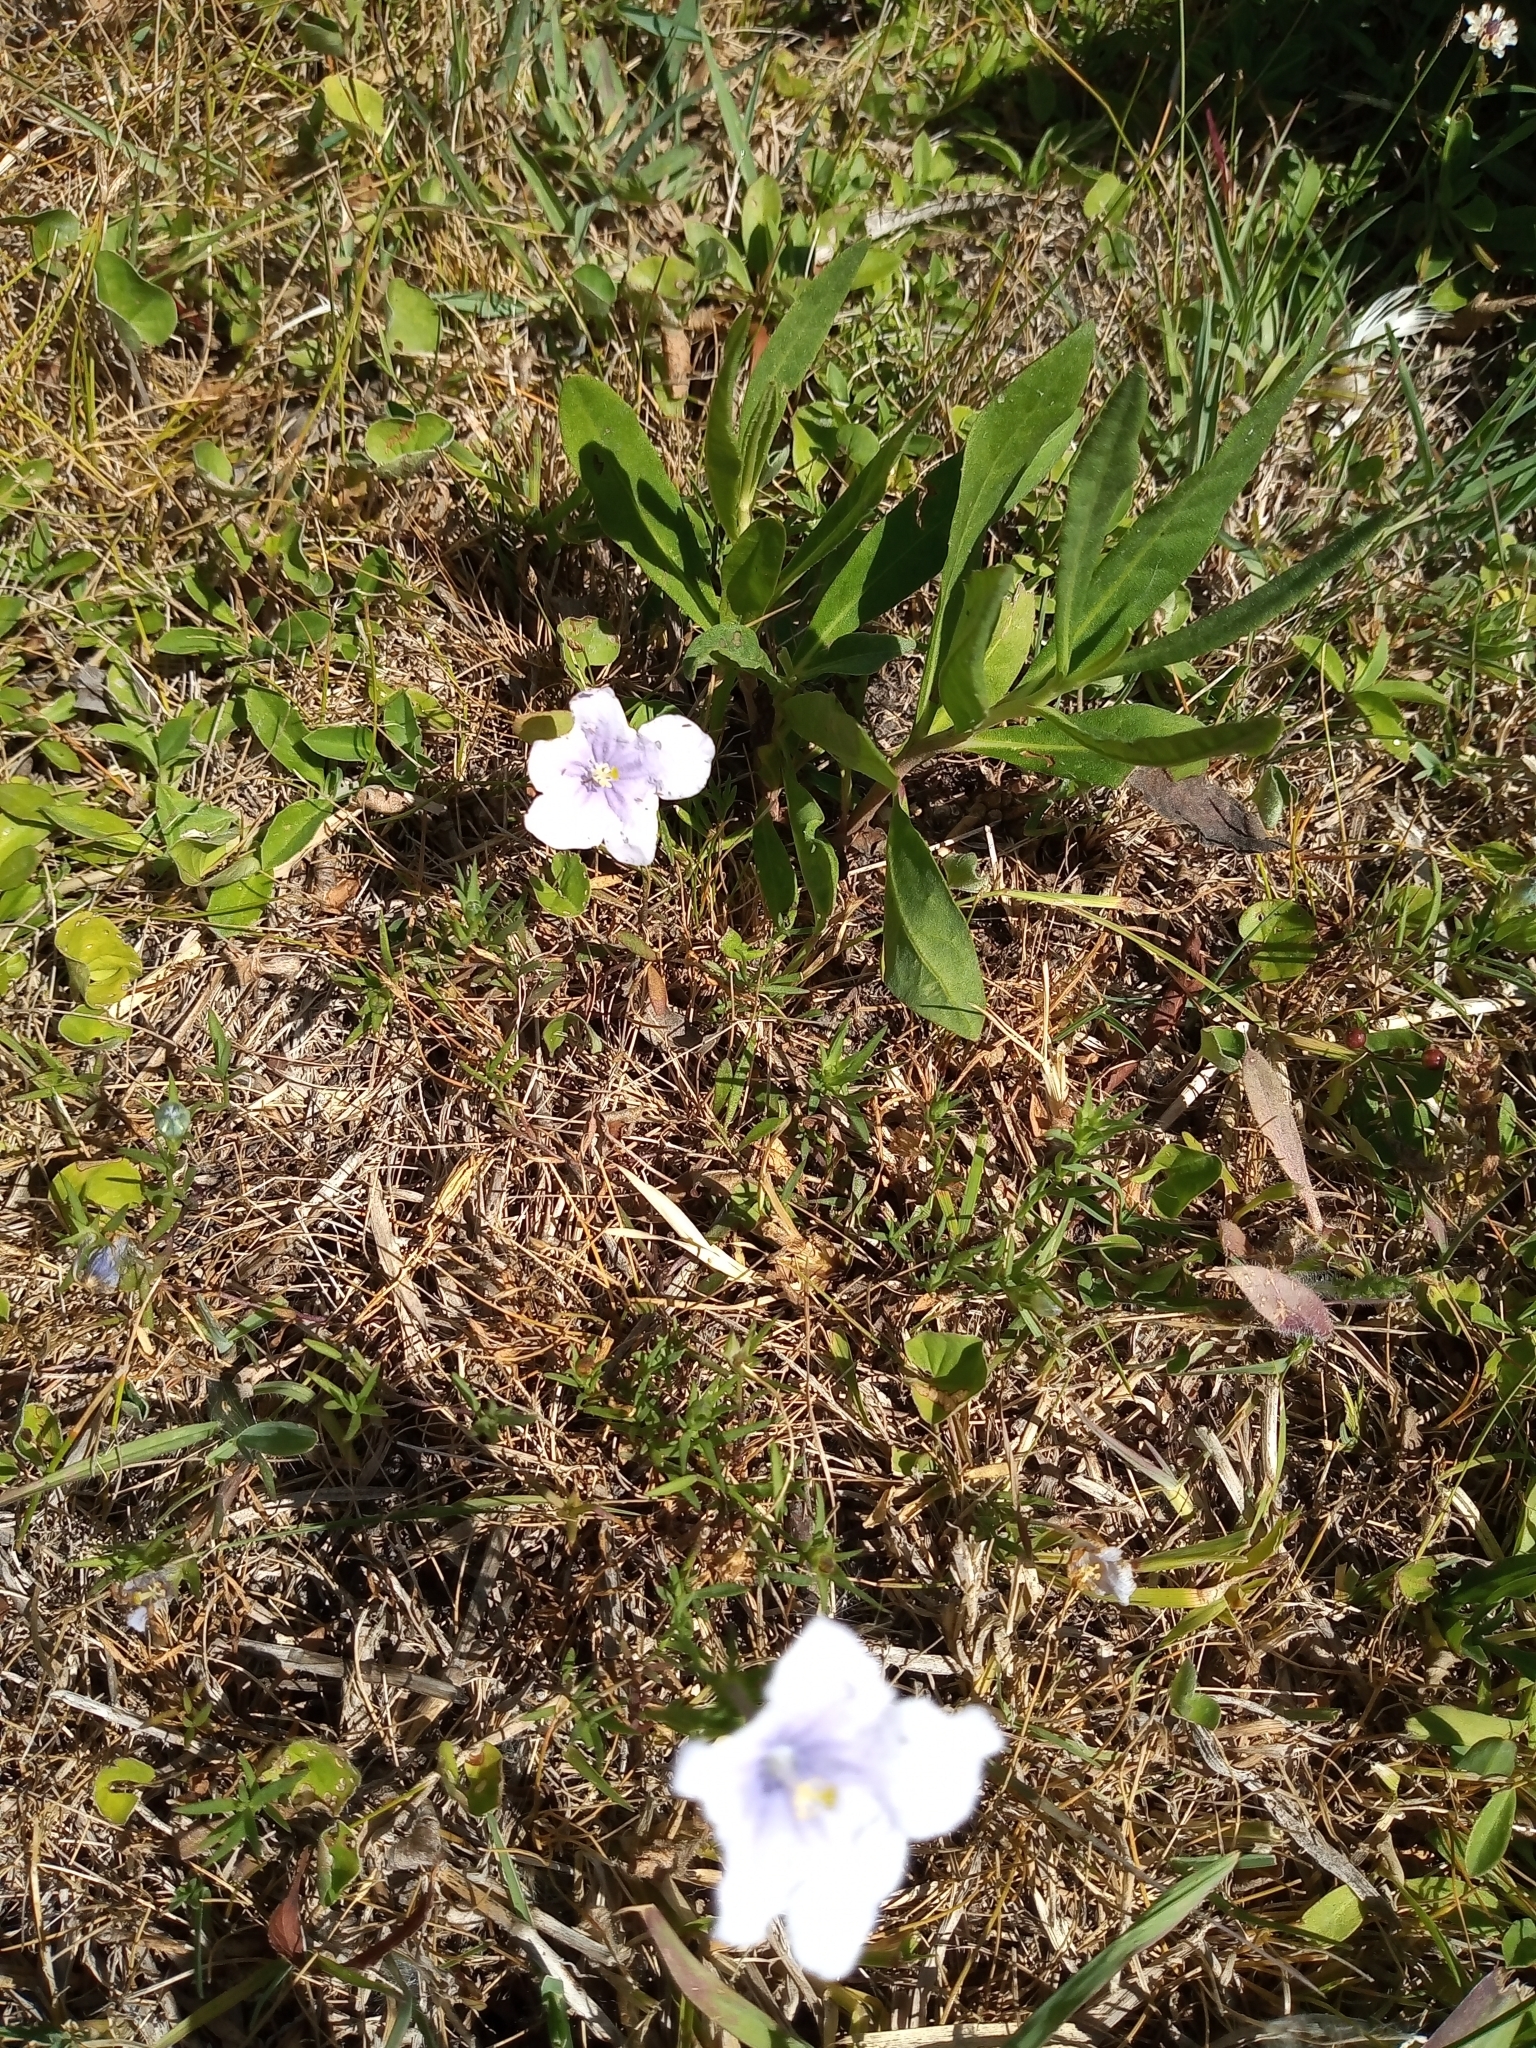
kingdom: Plantae
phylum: Tracheophyta
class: Magnoliopsida
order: Solanales
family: Solanaceae
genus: Nierembergia
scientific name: Nierembergia aristata
